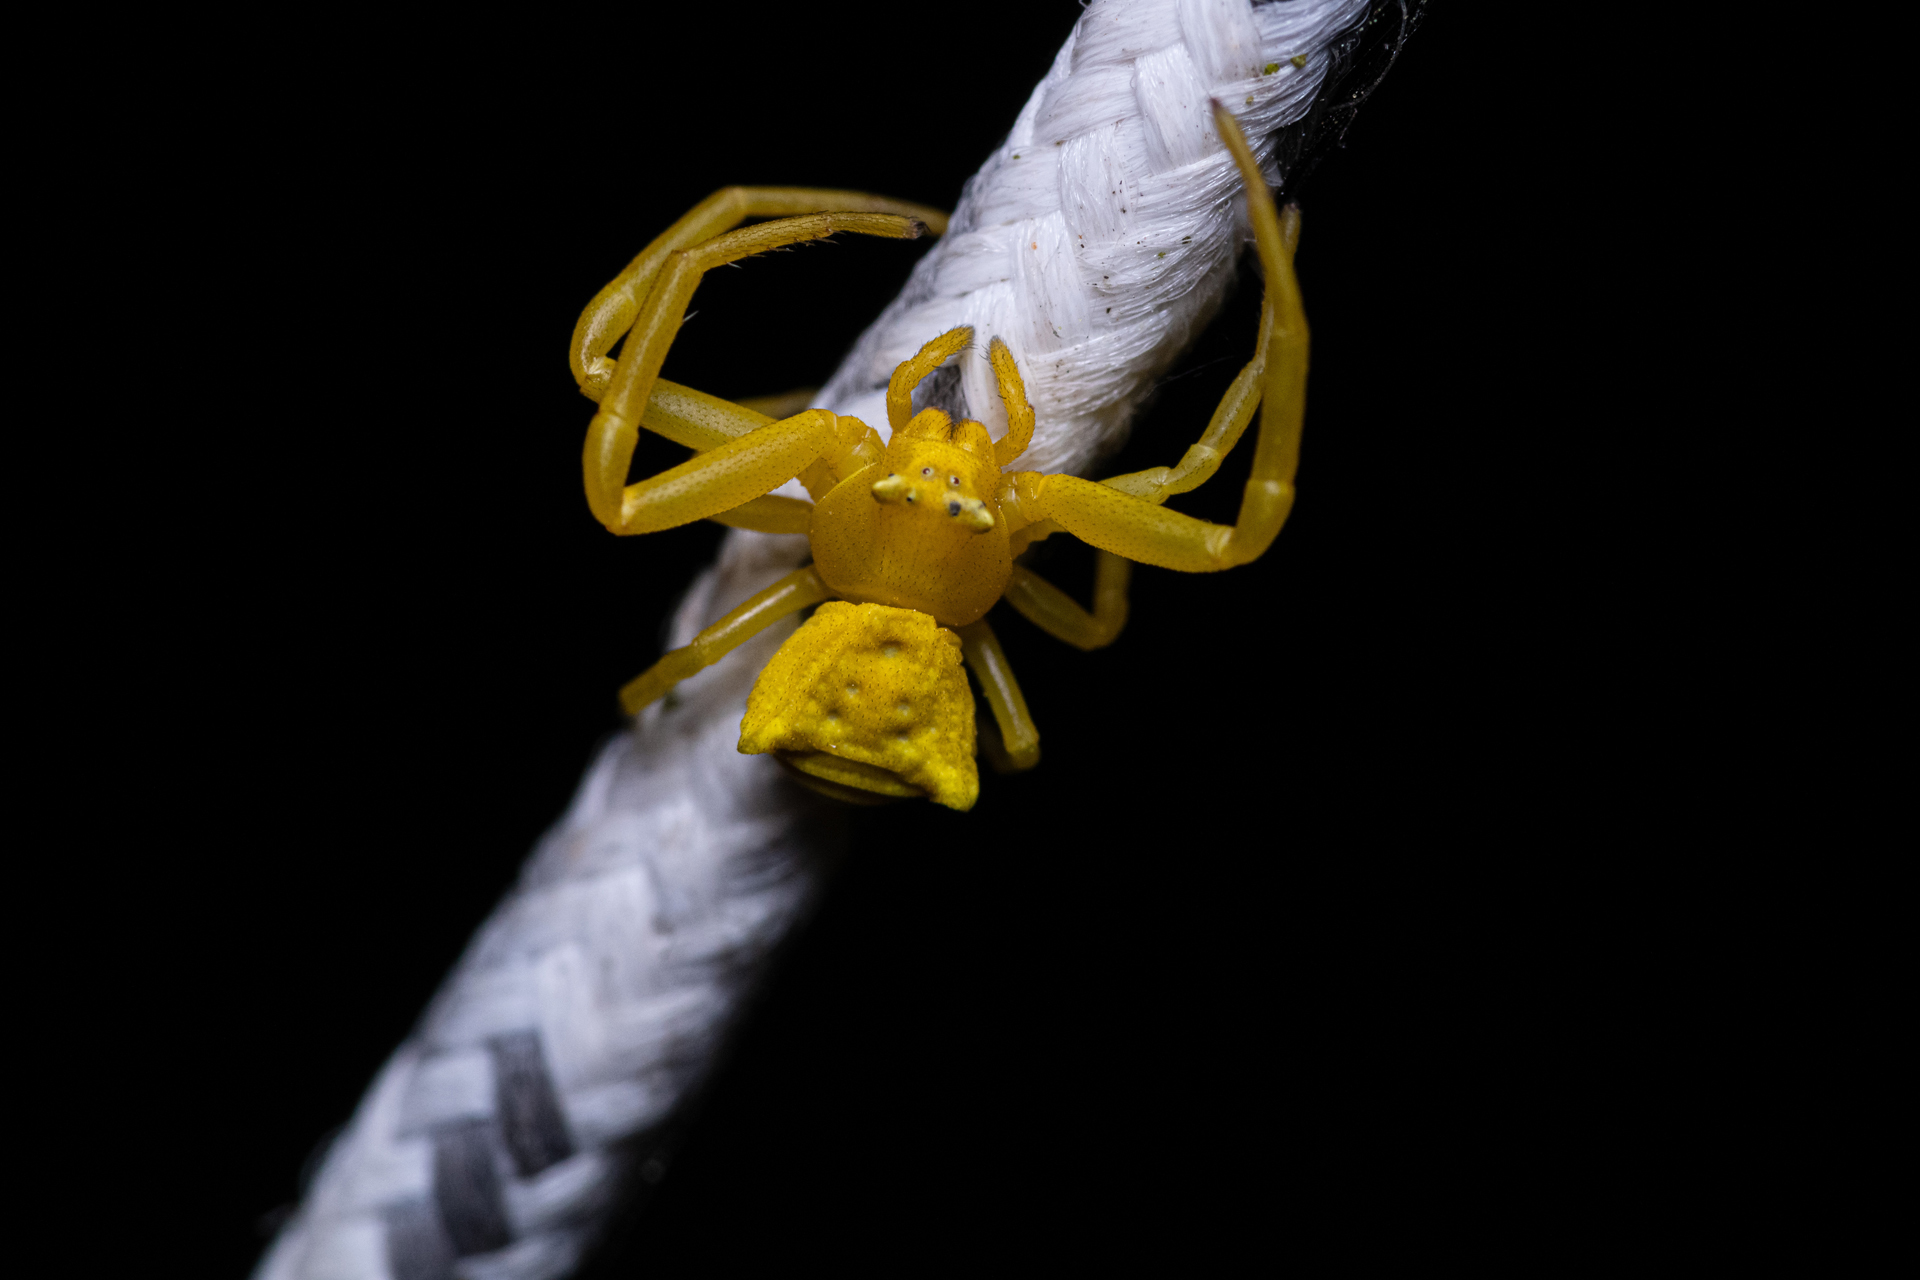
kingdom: Animalia
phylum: Arthropoda
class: Arachnida
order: Araneae
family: Thomisidae
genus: Thomisus
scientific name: Thomisus onustus
